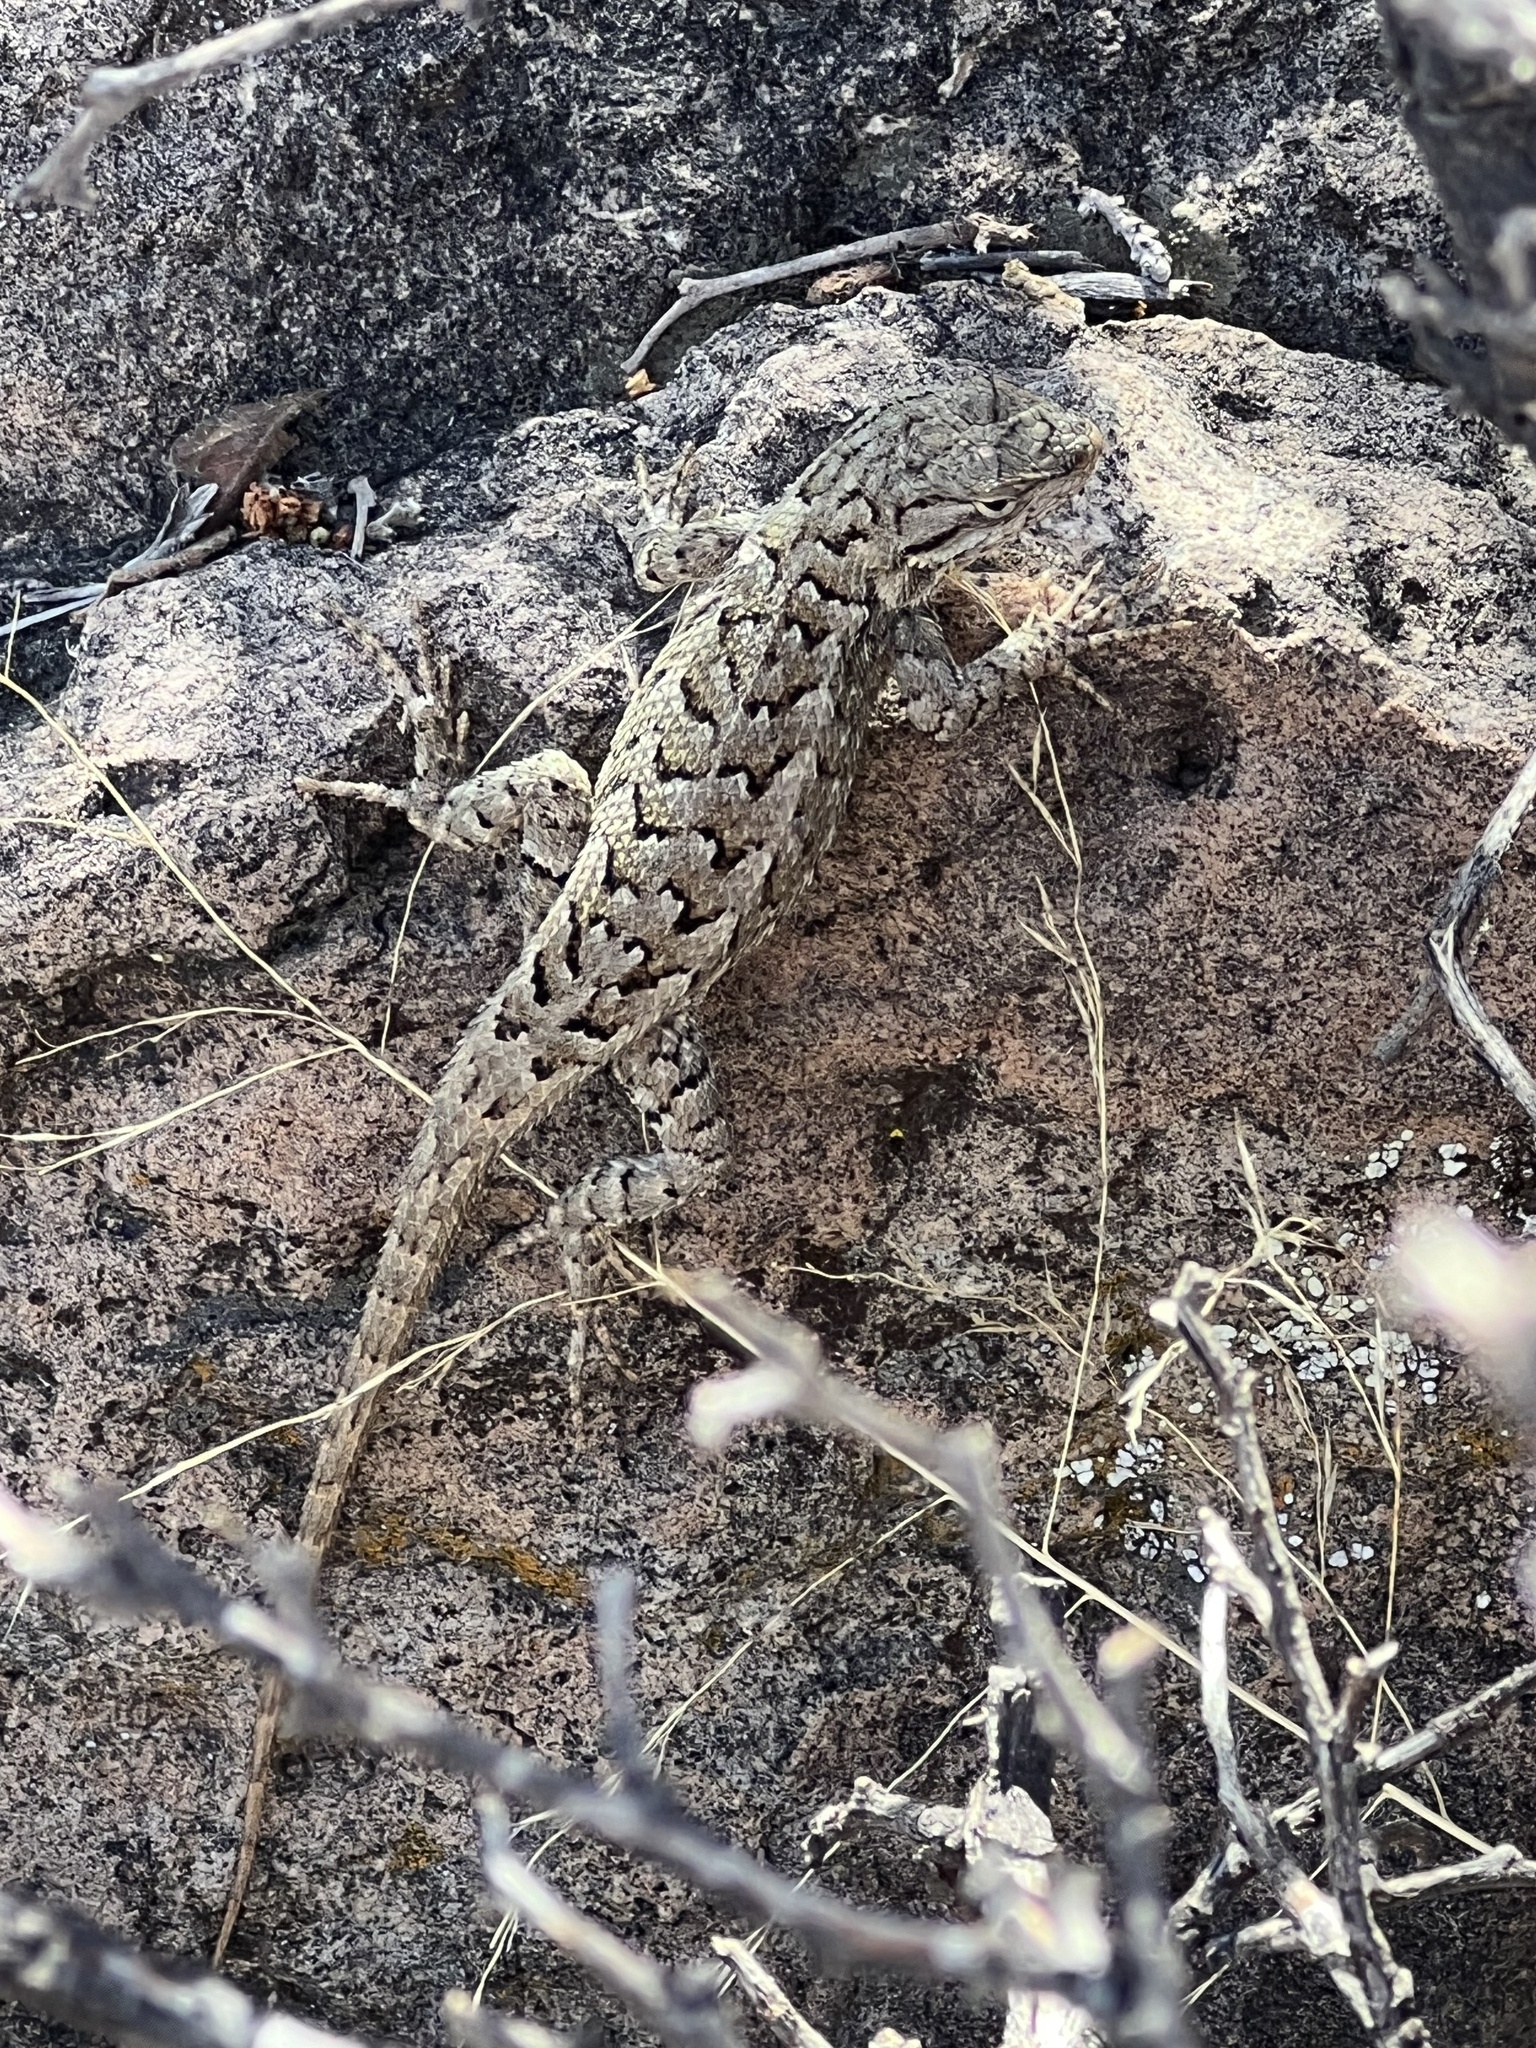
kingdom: Animalia
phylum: Chordata
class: Squamata
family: Phrynosomatidae
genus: Sceloporus
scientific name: Sceloporus consobrinus
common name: Southern prairie lizard
